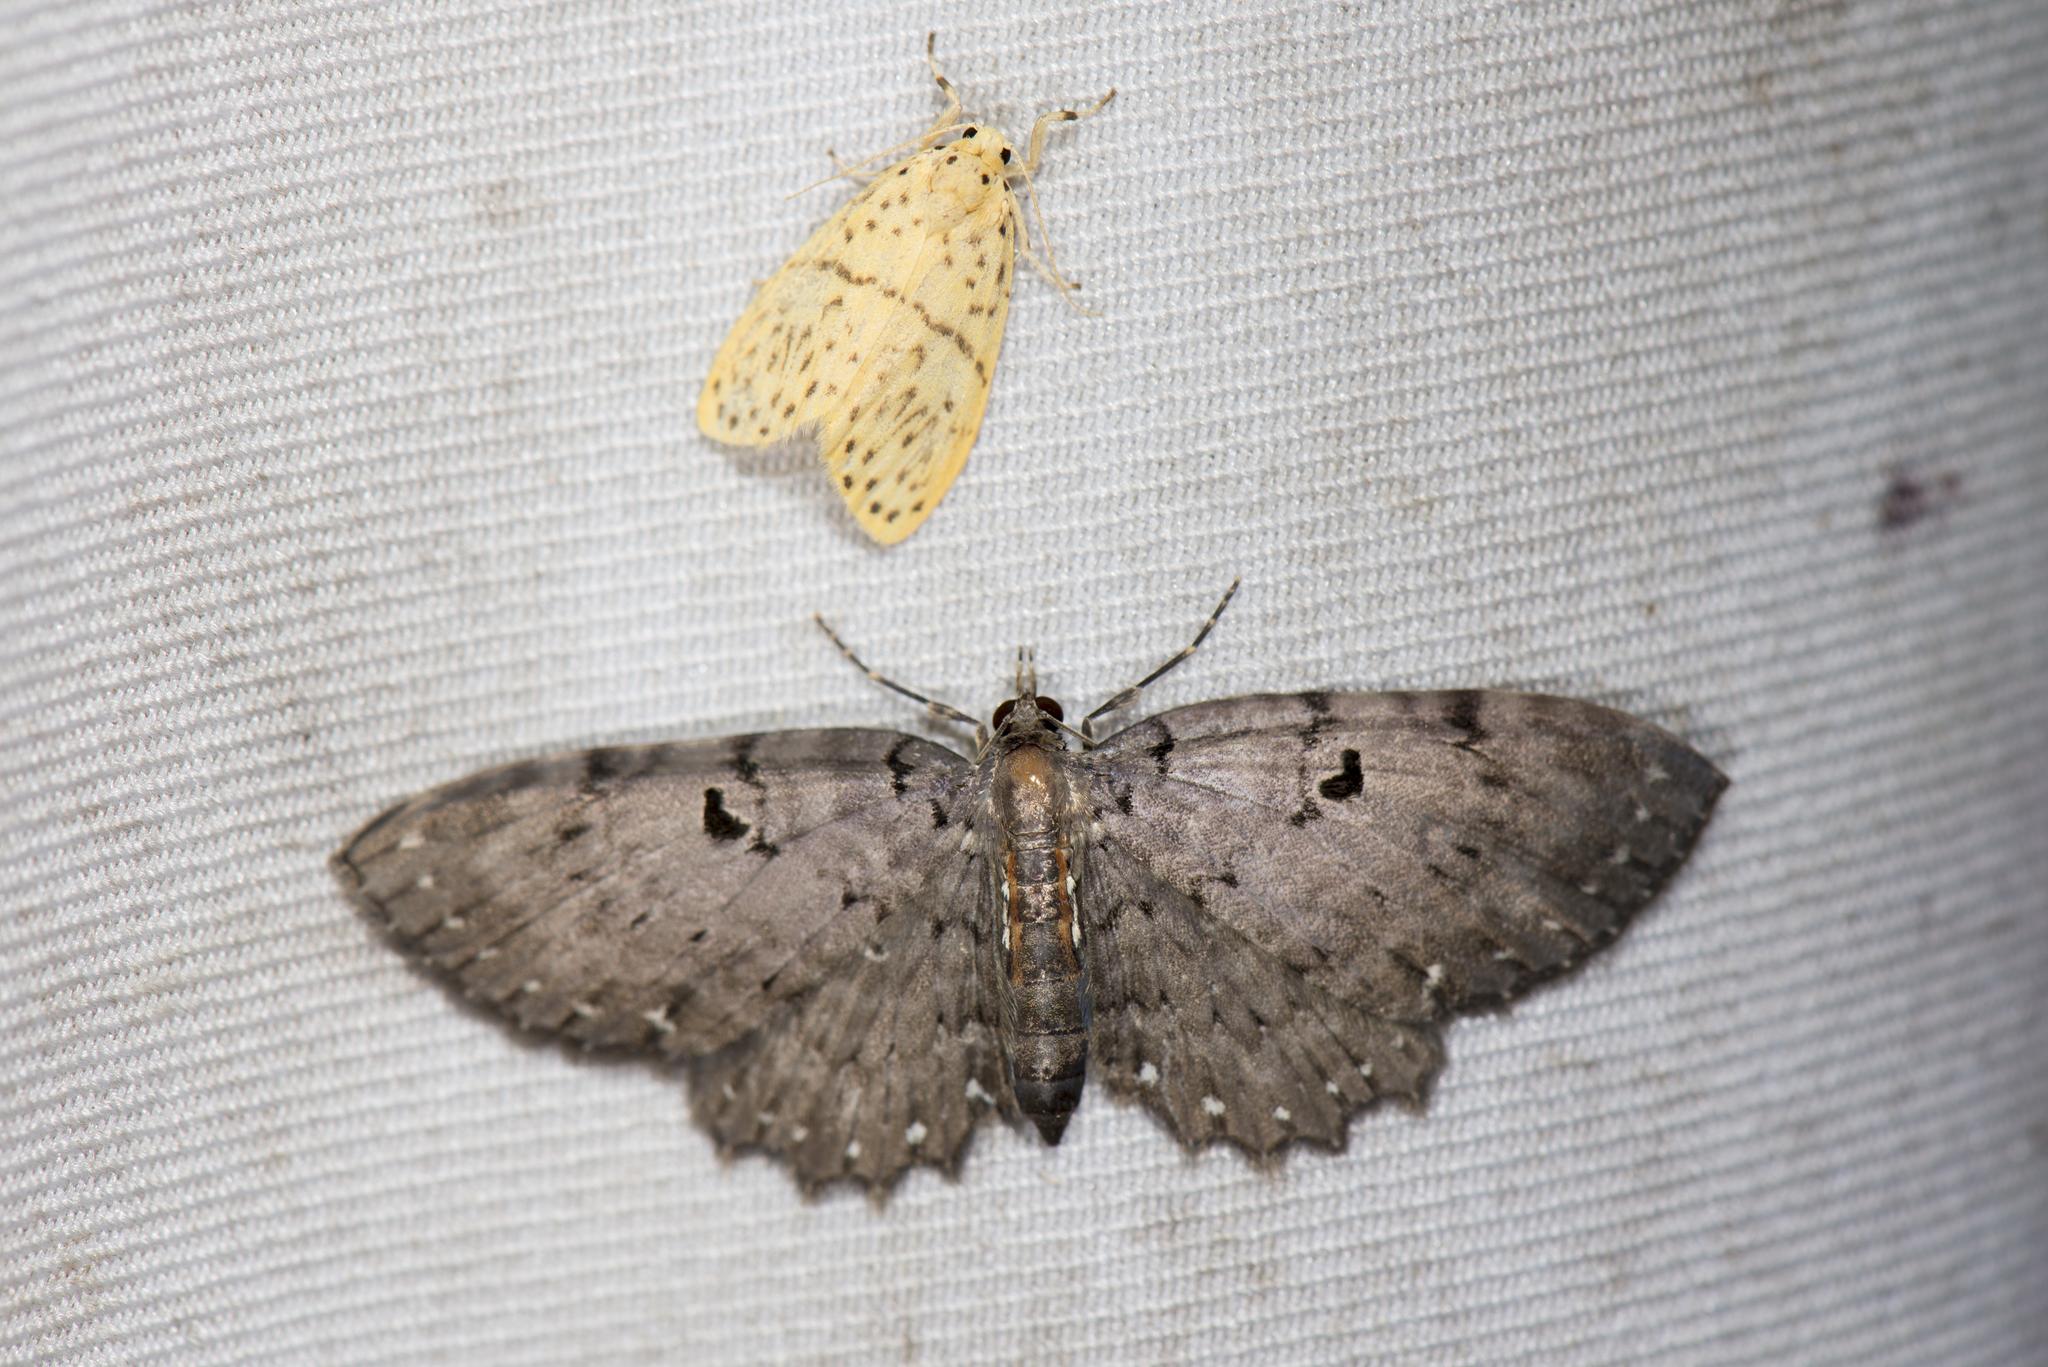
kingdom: Animalia
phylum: Arthropoda
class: Insecta
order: Lepidoptera
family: Geometridae
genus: Collix
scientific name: Collix stellata
